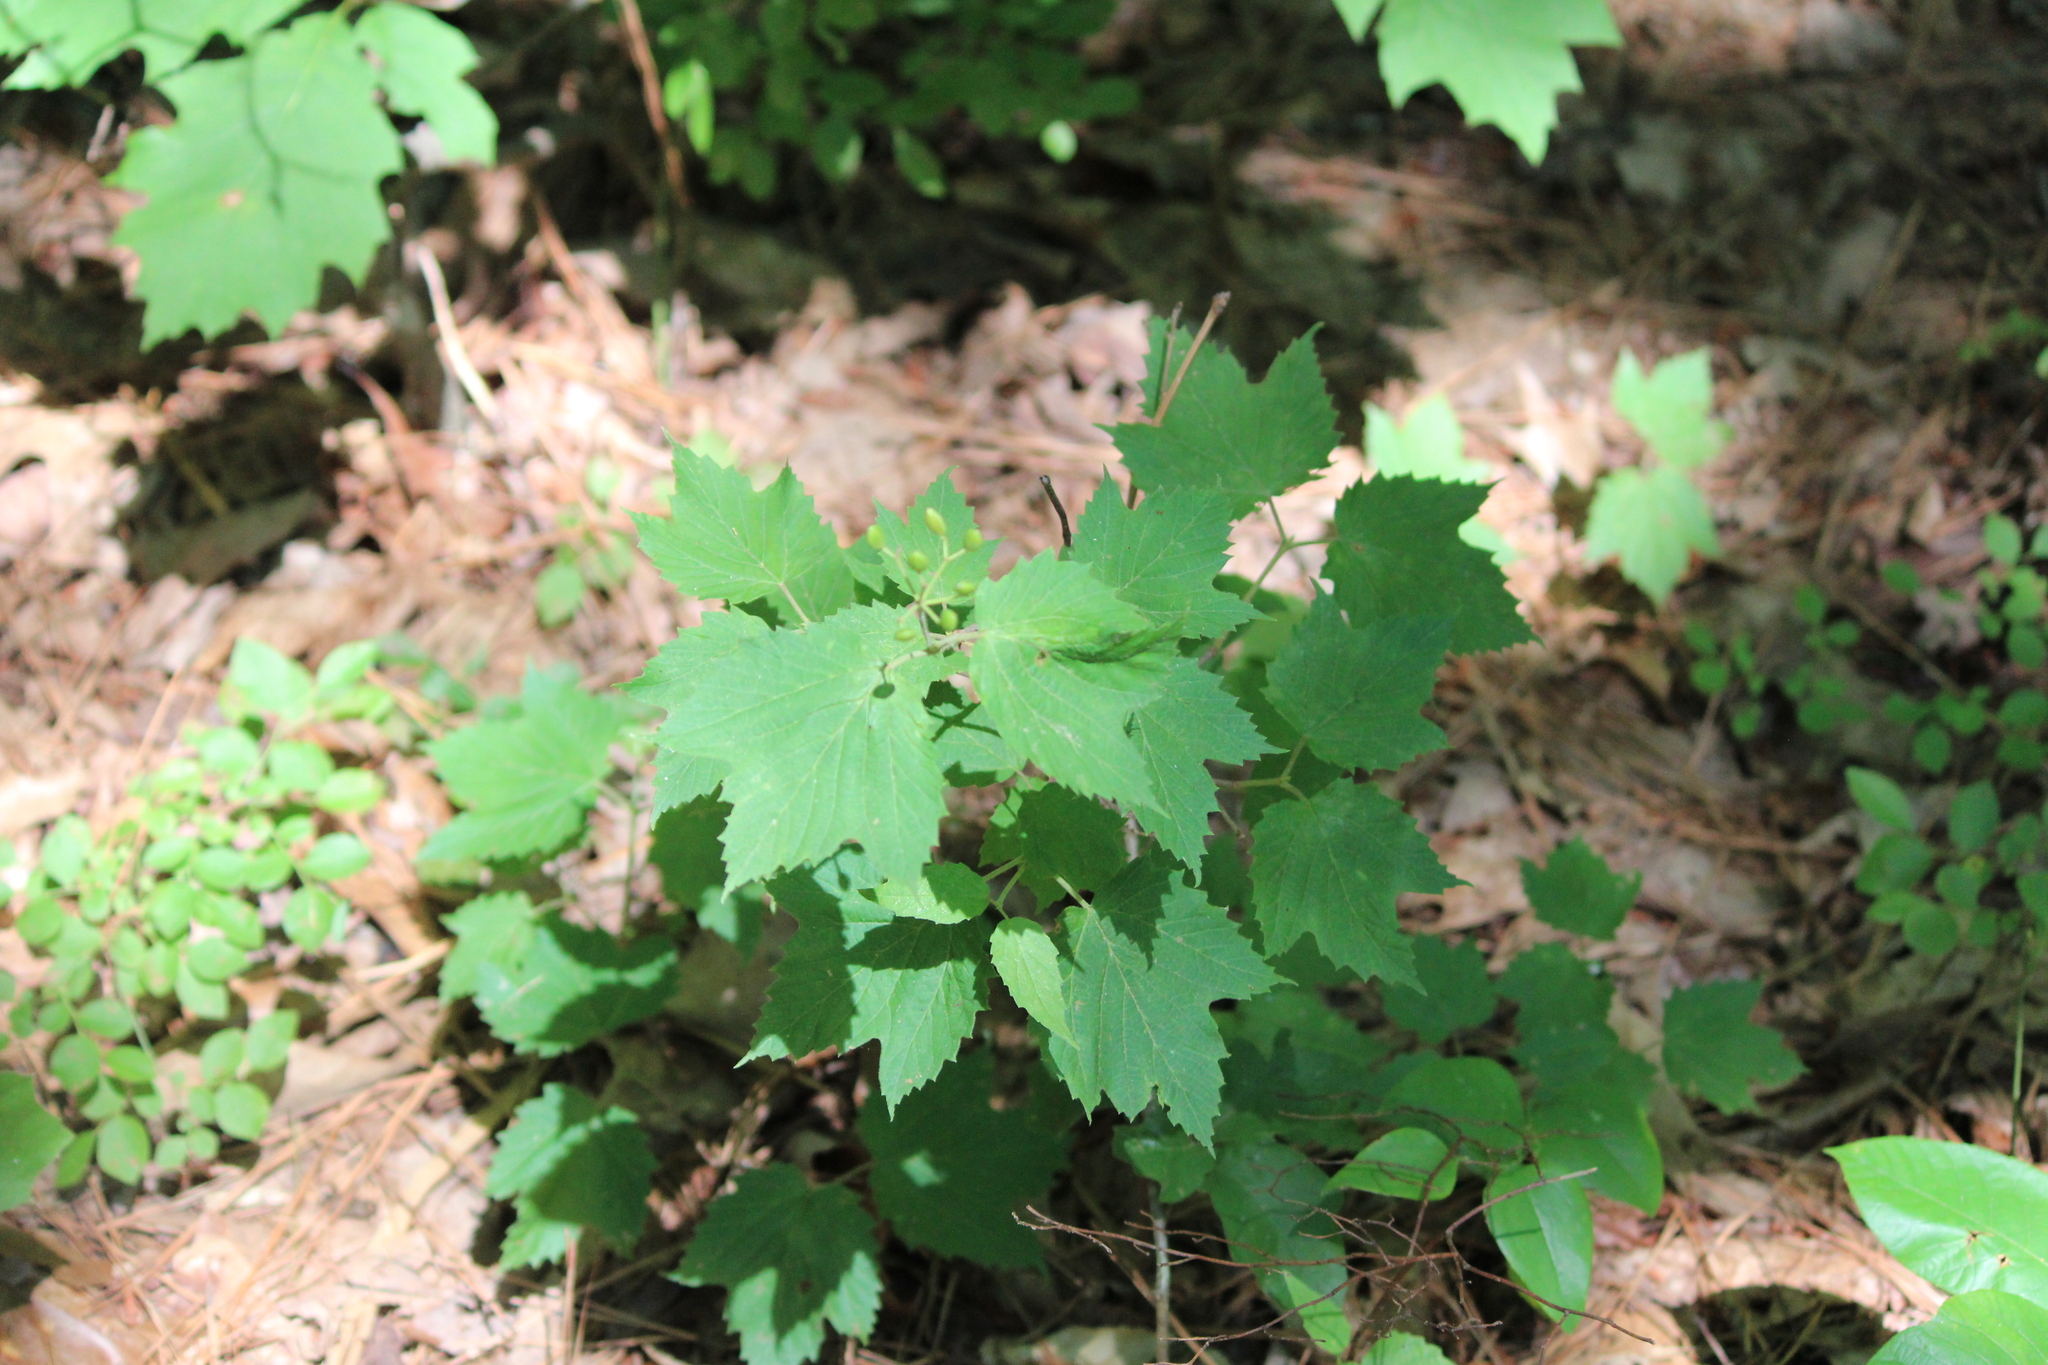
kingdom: Plantae
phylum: Tracheophyta
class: Magnoliopsida
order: Dipsacales
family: Viburnaceae
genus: Viburnum
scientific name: Viburnum acerifolium
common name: Dockmackie
